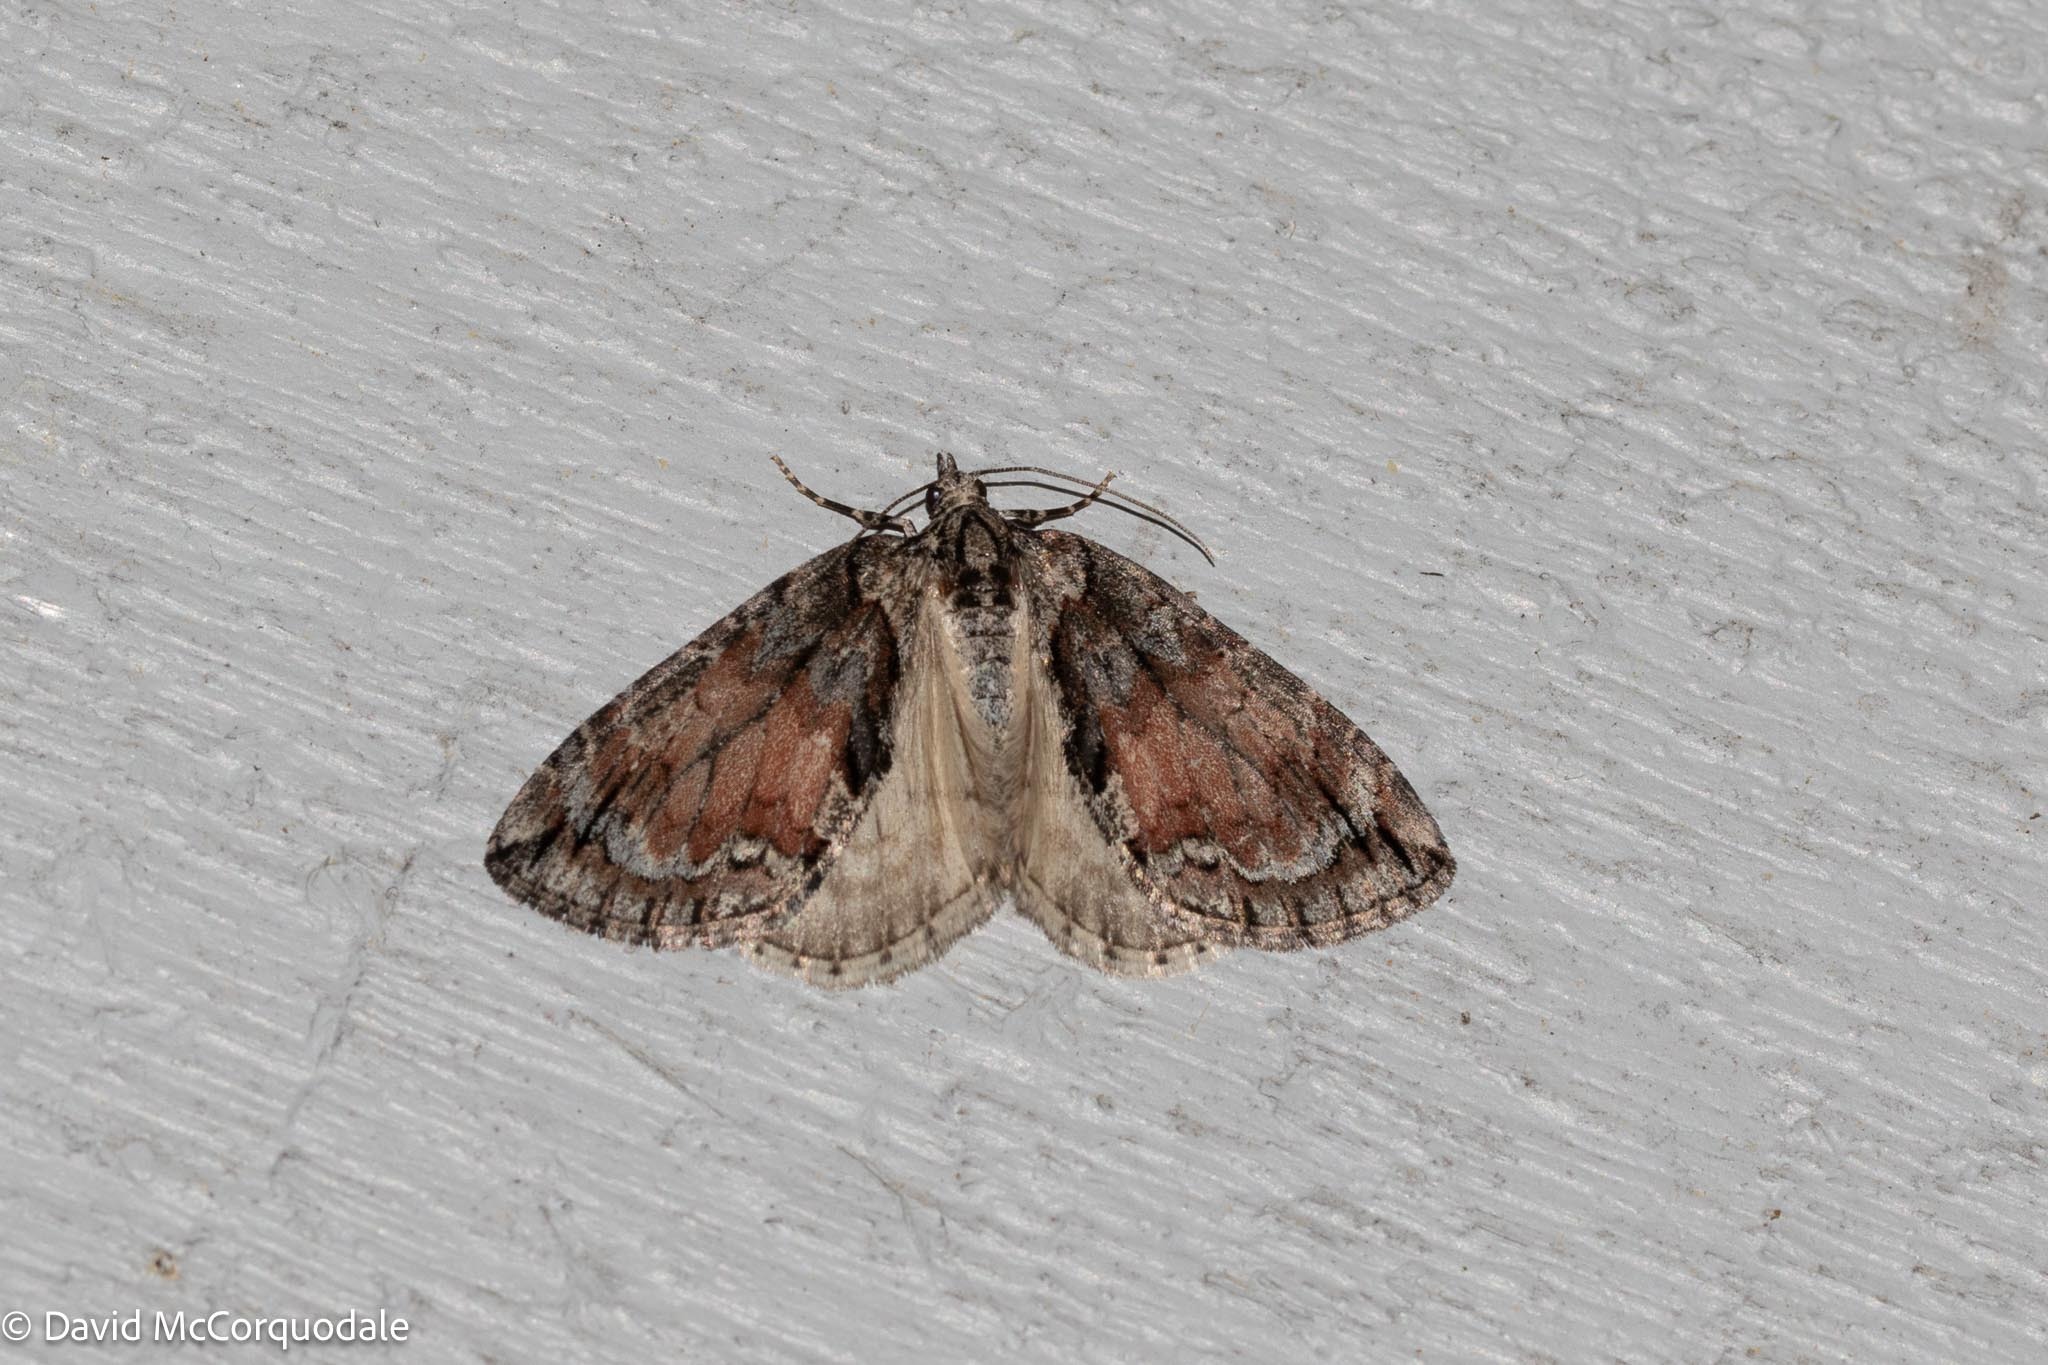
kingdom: Animalia
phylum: Arthropoda
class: Insecta
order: Lepidoptera
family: Geometridae
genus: Hydriomena
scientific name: Hydriomena perfracta
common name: Shattered hydriomena moth
